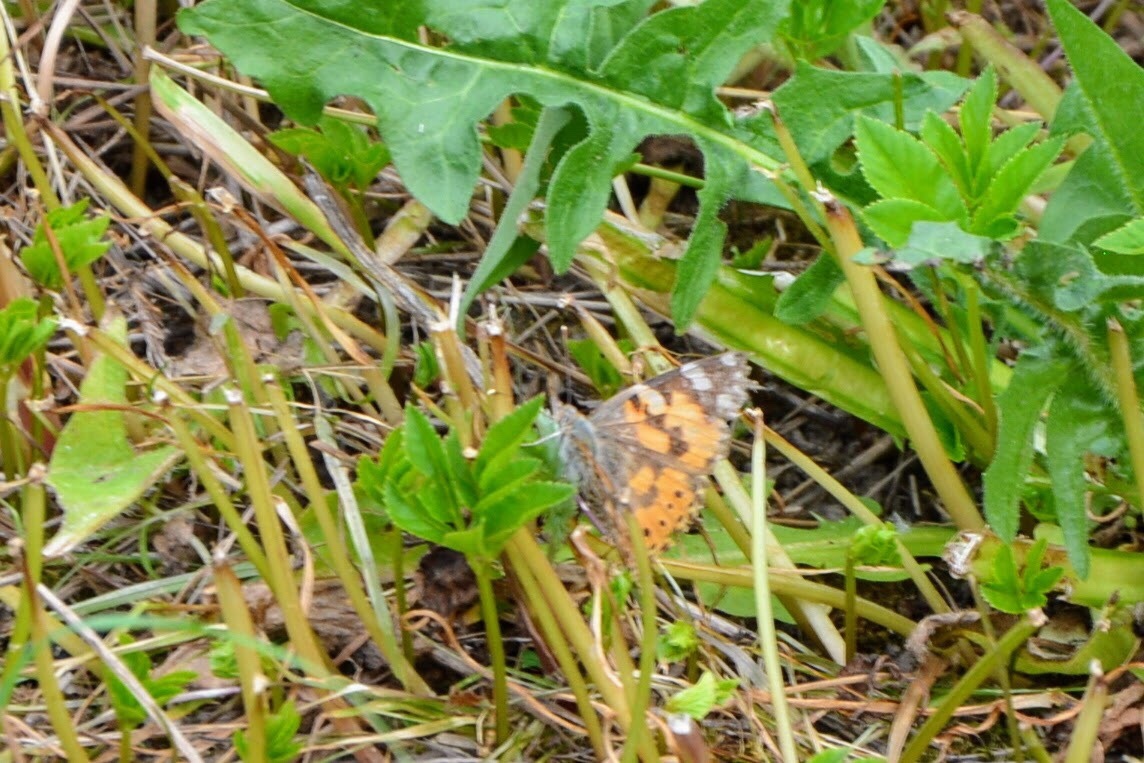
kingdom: Animalia
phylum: Arthropoda
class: Insecta
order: Lepidoptera
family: Nymphalidae
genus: Vanessa
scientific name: Vanessa cardui
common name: Painted lady
